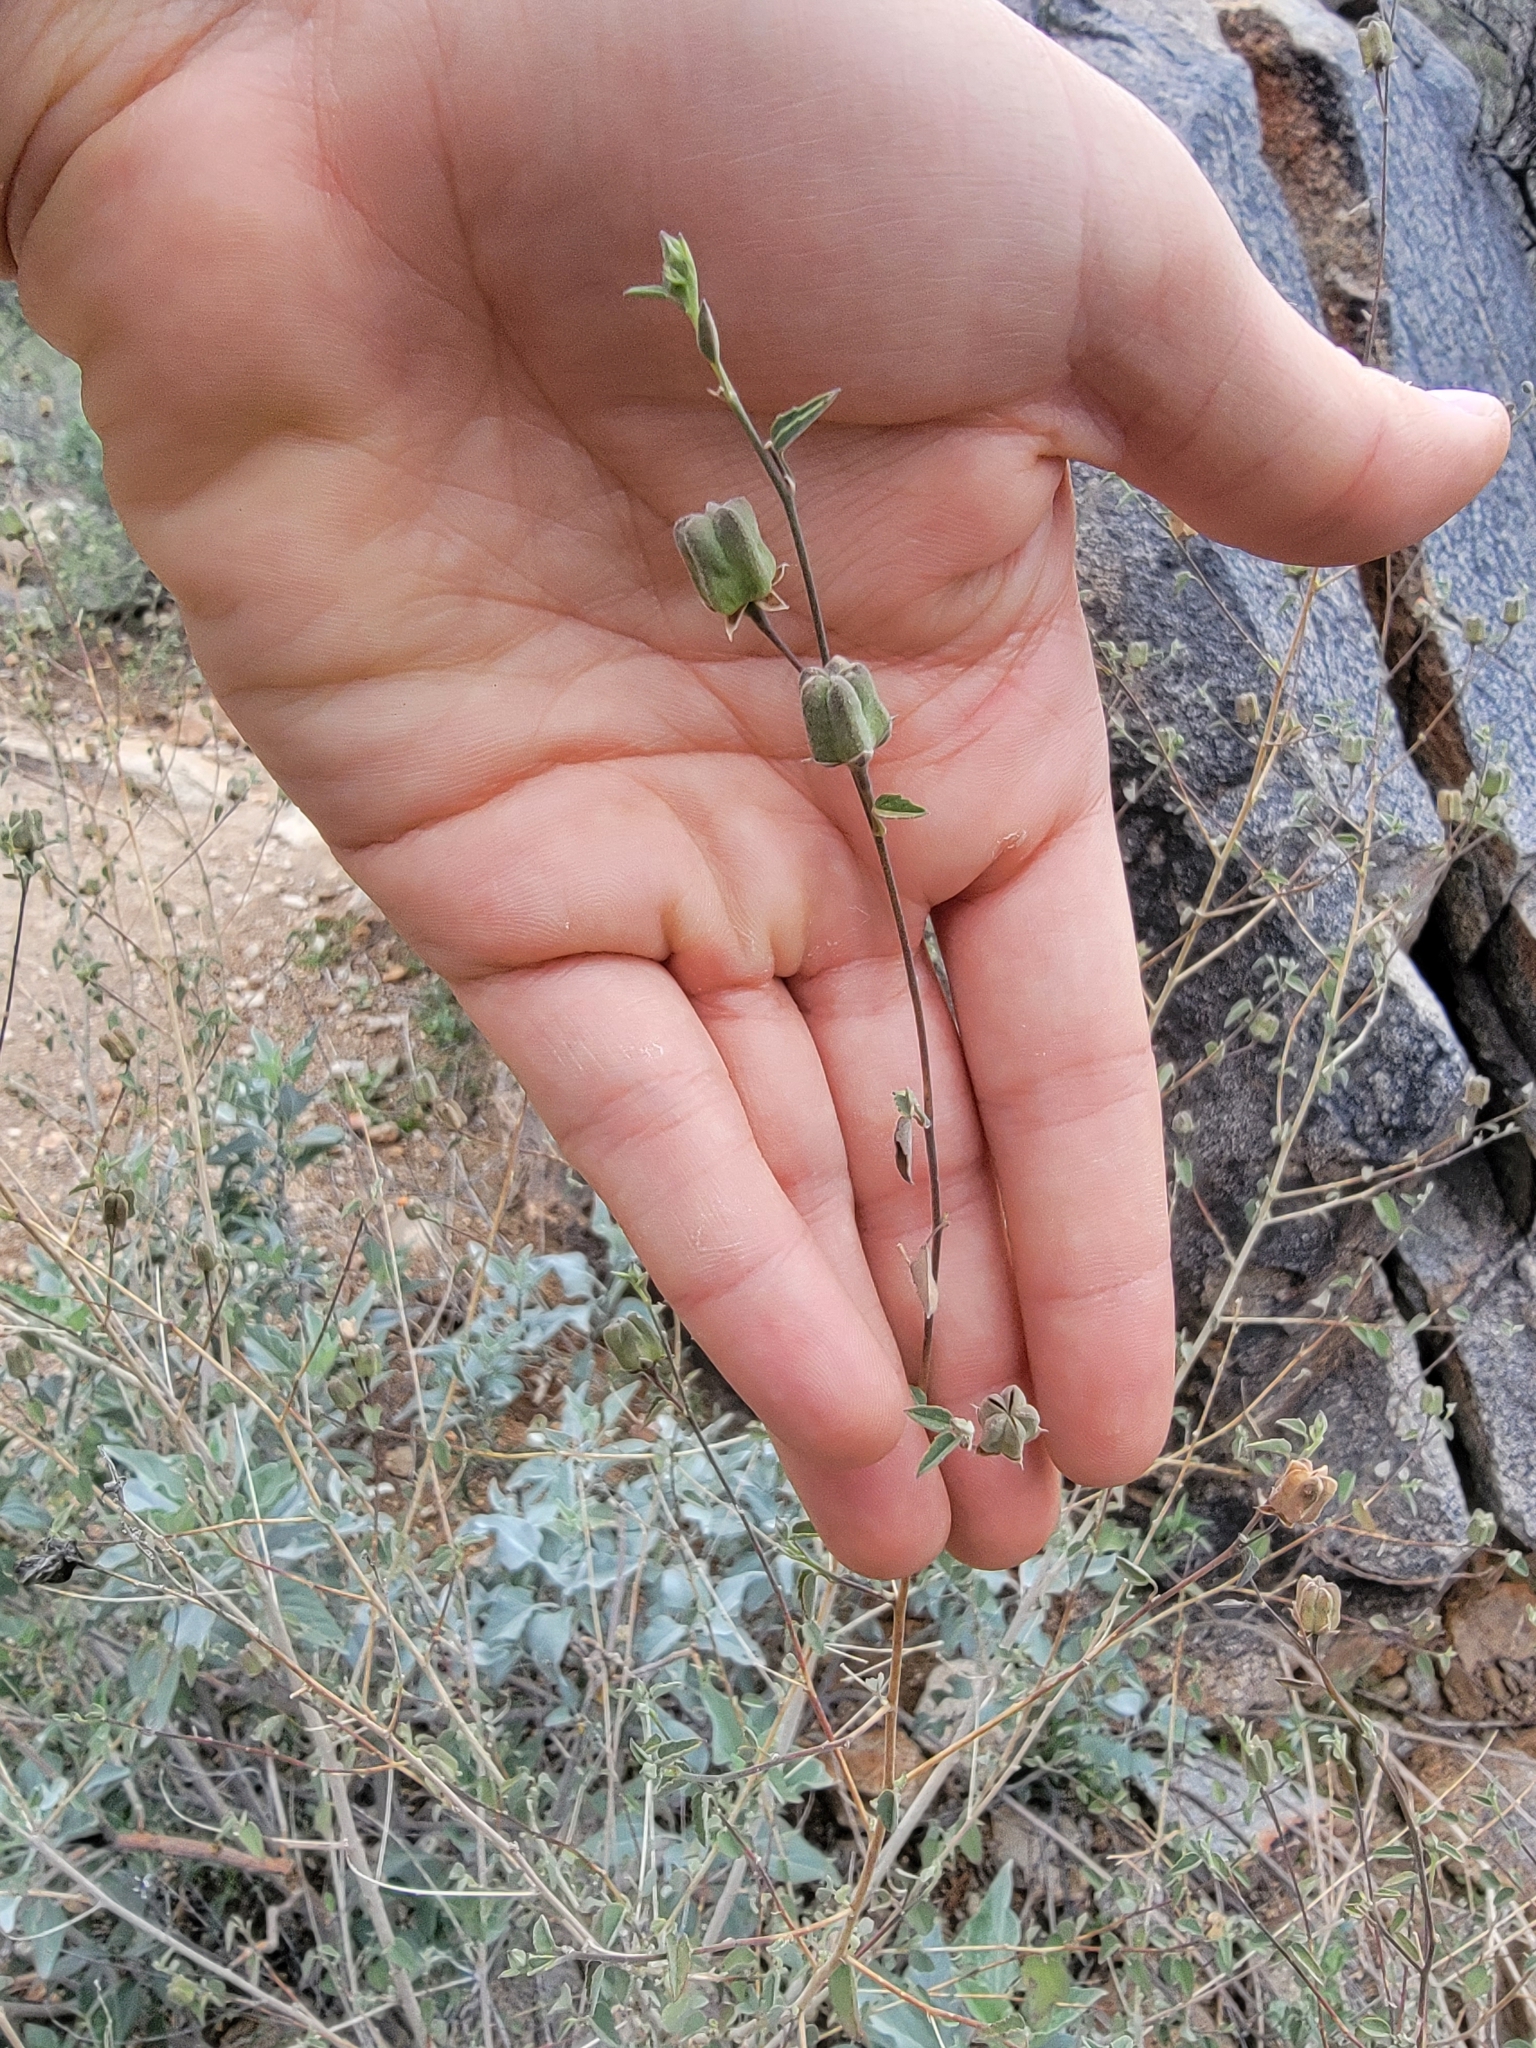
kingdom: Plantae
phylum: Tracheophyta
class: Magnoliopsida
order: Malvales
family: Malvaceae
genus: Abutilon
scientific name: Abutilon incanum
